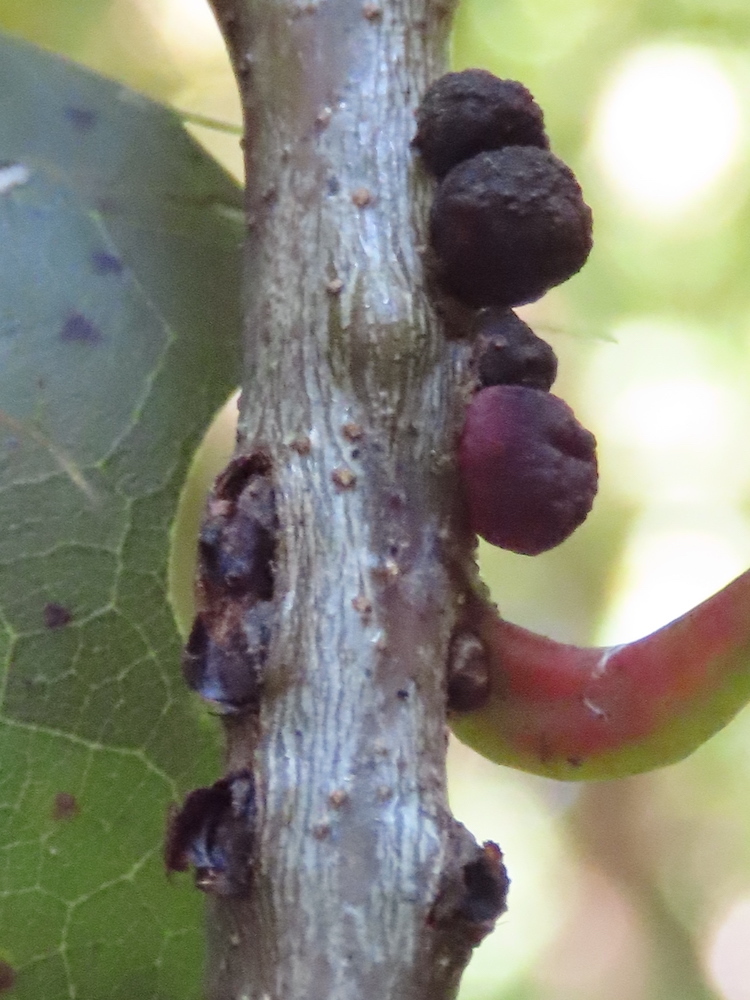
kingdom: Animalia
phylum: Arthropoda
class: Insecta
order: Hymenoptera
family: Cynipidae
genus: Kokkocynips
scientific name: Kokkocynips imbricariae
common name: Banded bullet gall wasp
